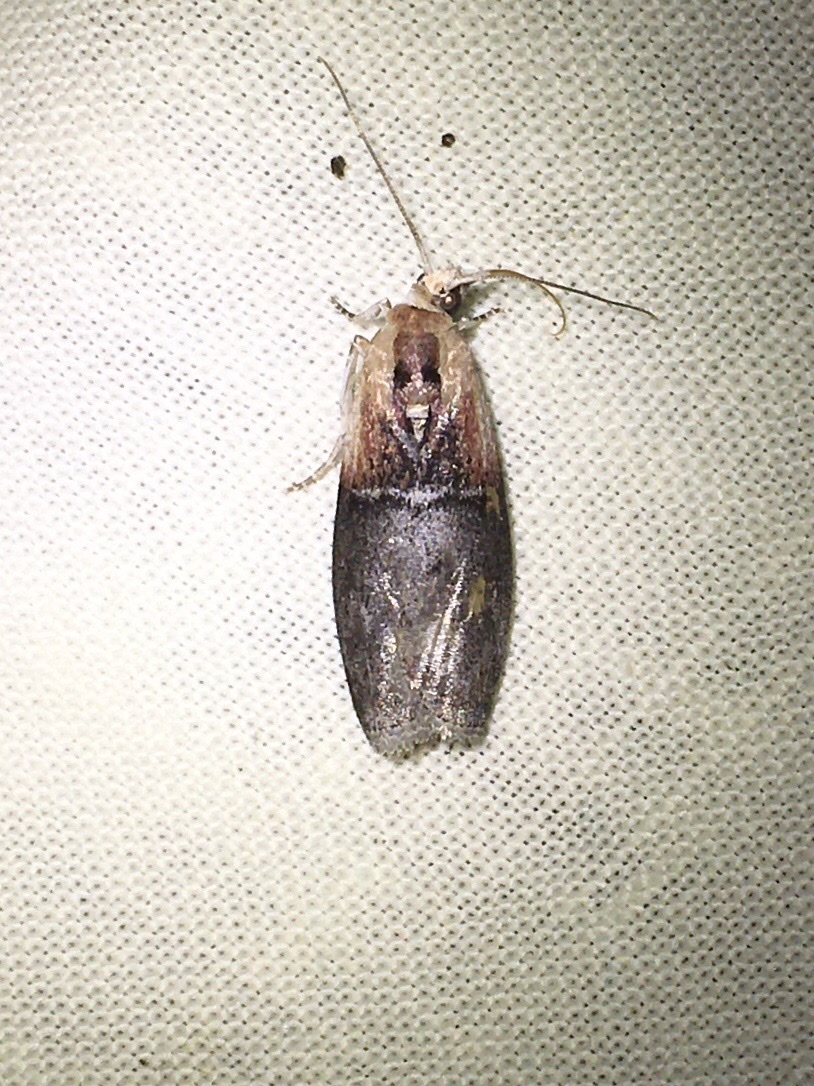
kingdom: Animalia
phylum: Arthropoda
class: Insecta
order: Lepidoptera
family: Pyralidae
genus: Sciota
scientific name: Sciota basilaris
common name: Yellow-shouldered leafroller
